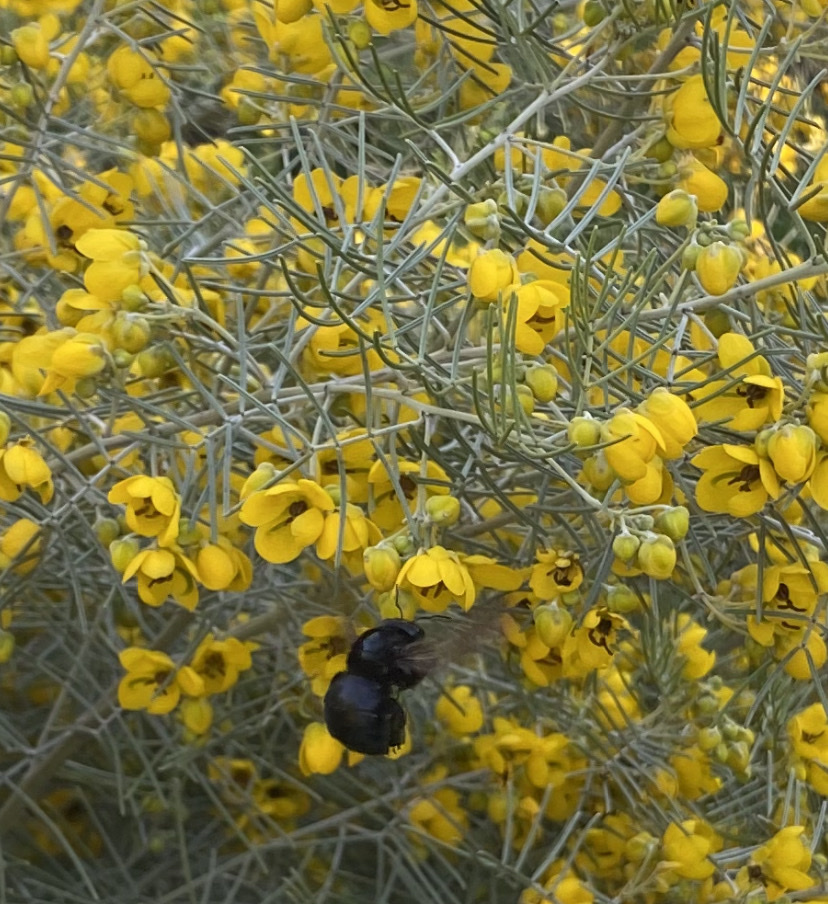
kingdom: Plantae
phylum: Tracheophyta
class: Magnoliopsida
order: Fabales
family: Fabaceae
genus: Senna
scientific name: Senna artemisioides
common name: Burnt-leaved acacia
